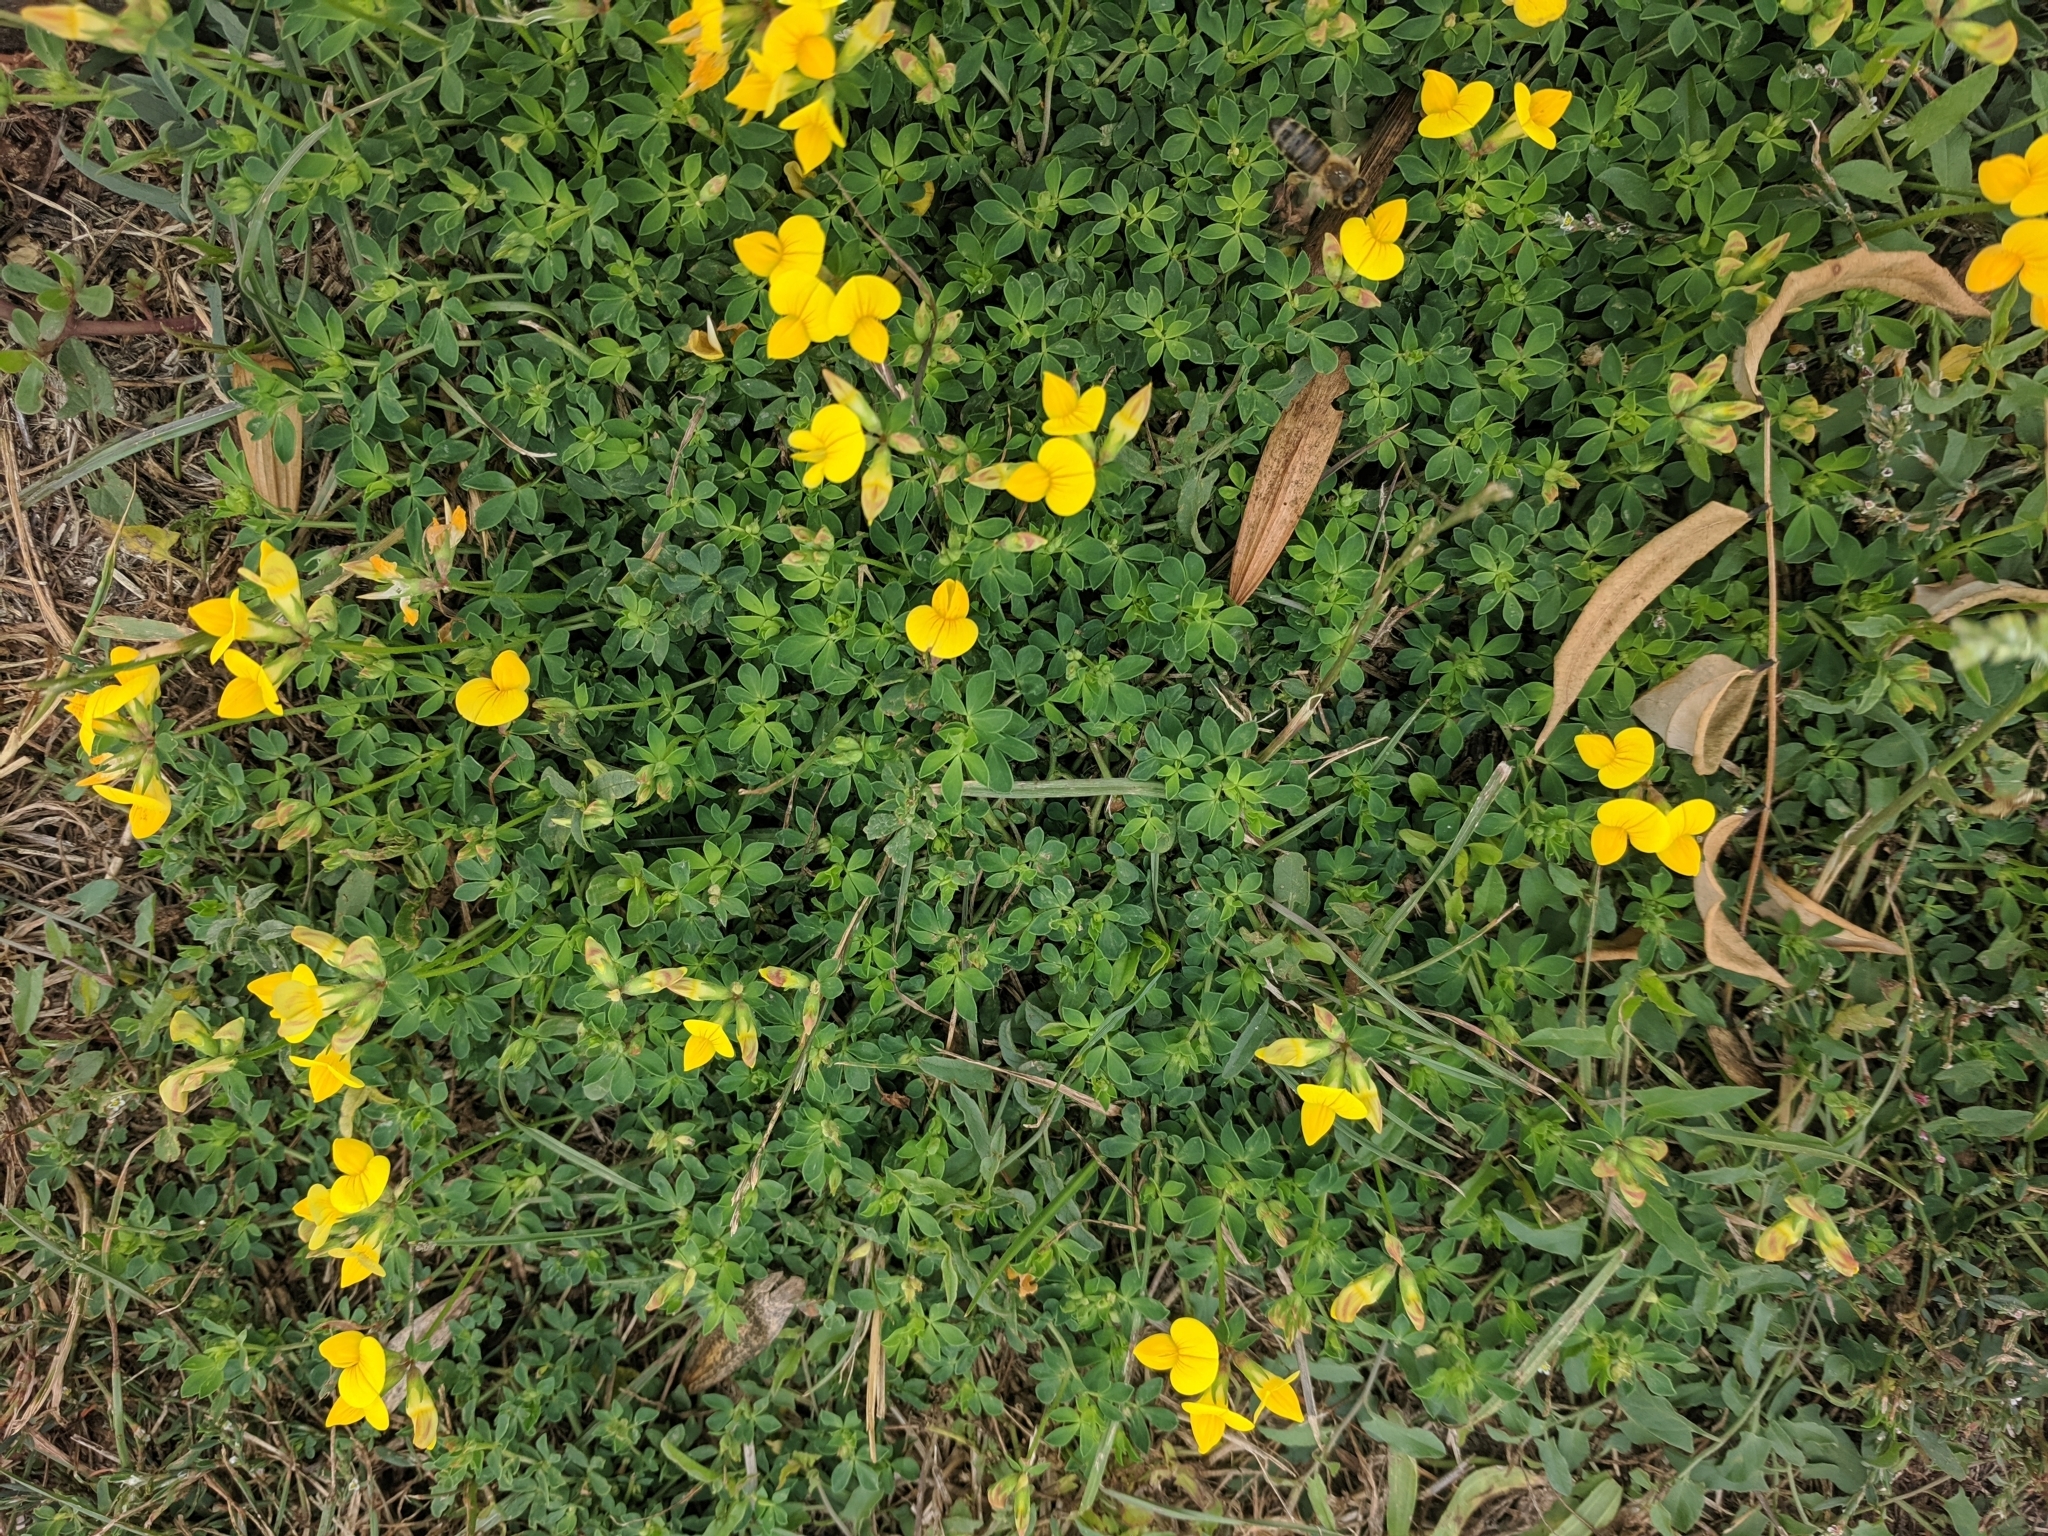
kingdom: Plantae
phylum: Tracheophyta
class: Magnoliopsida
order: Fabales
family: Fabaceae
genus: Lotus
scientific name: Lotus corniculatus
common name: Common bird's-foot-trefoil
